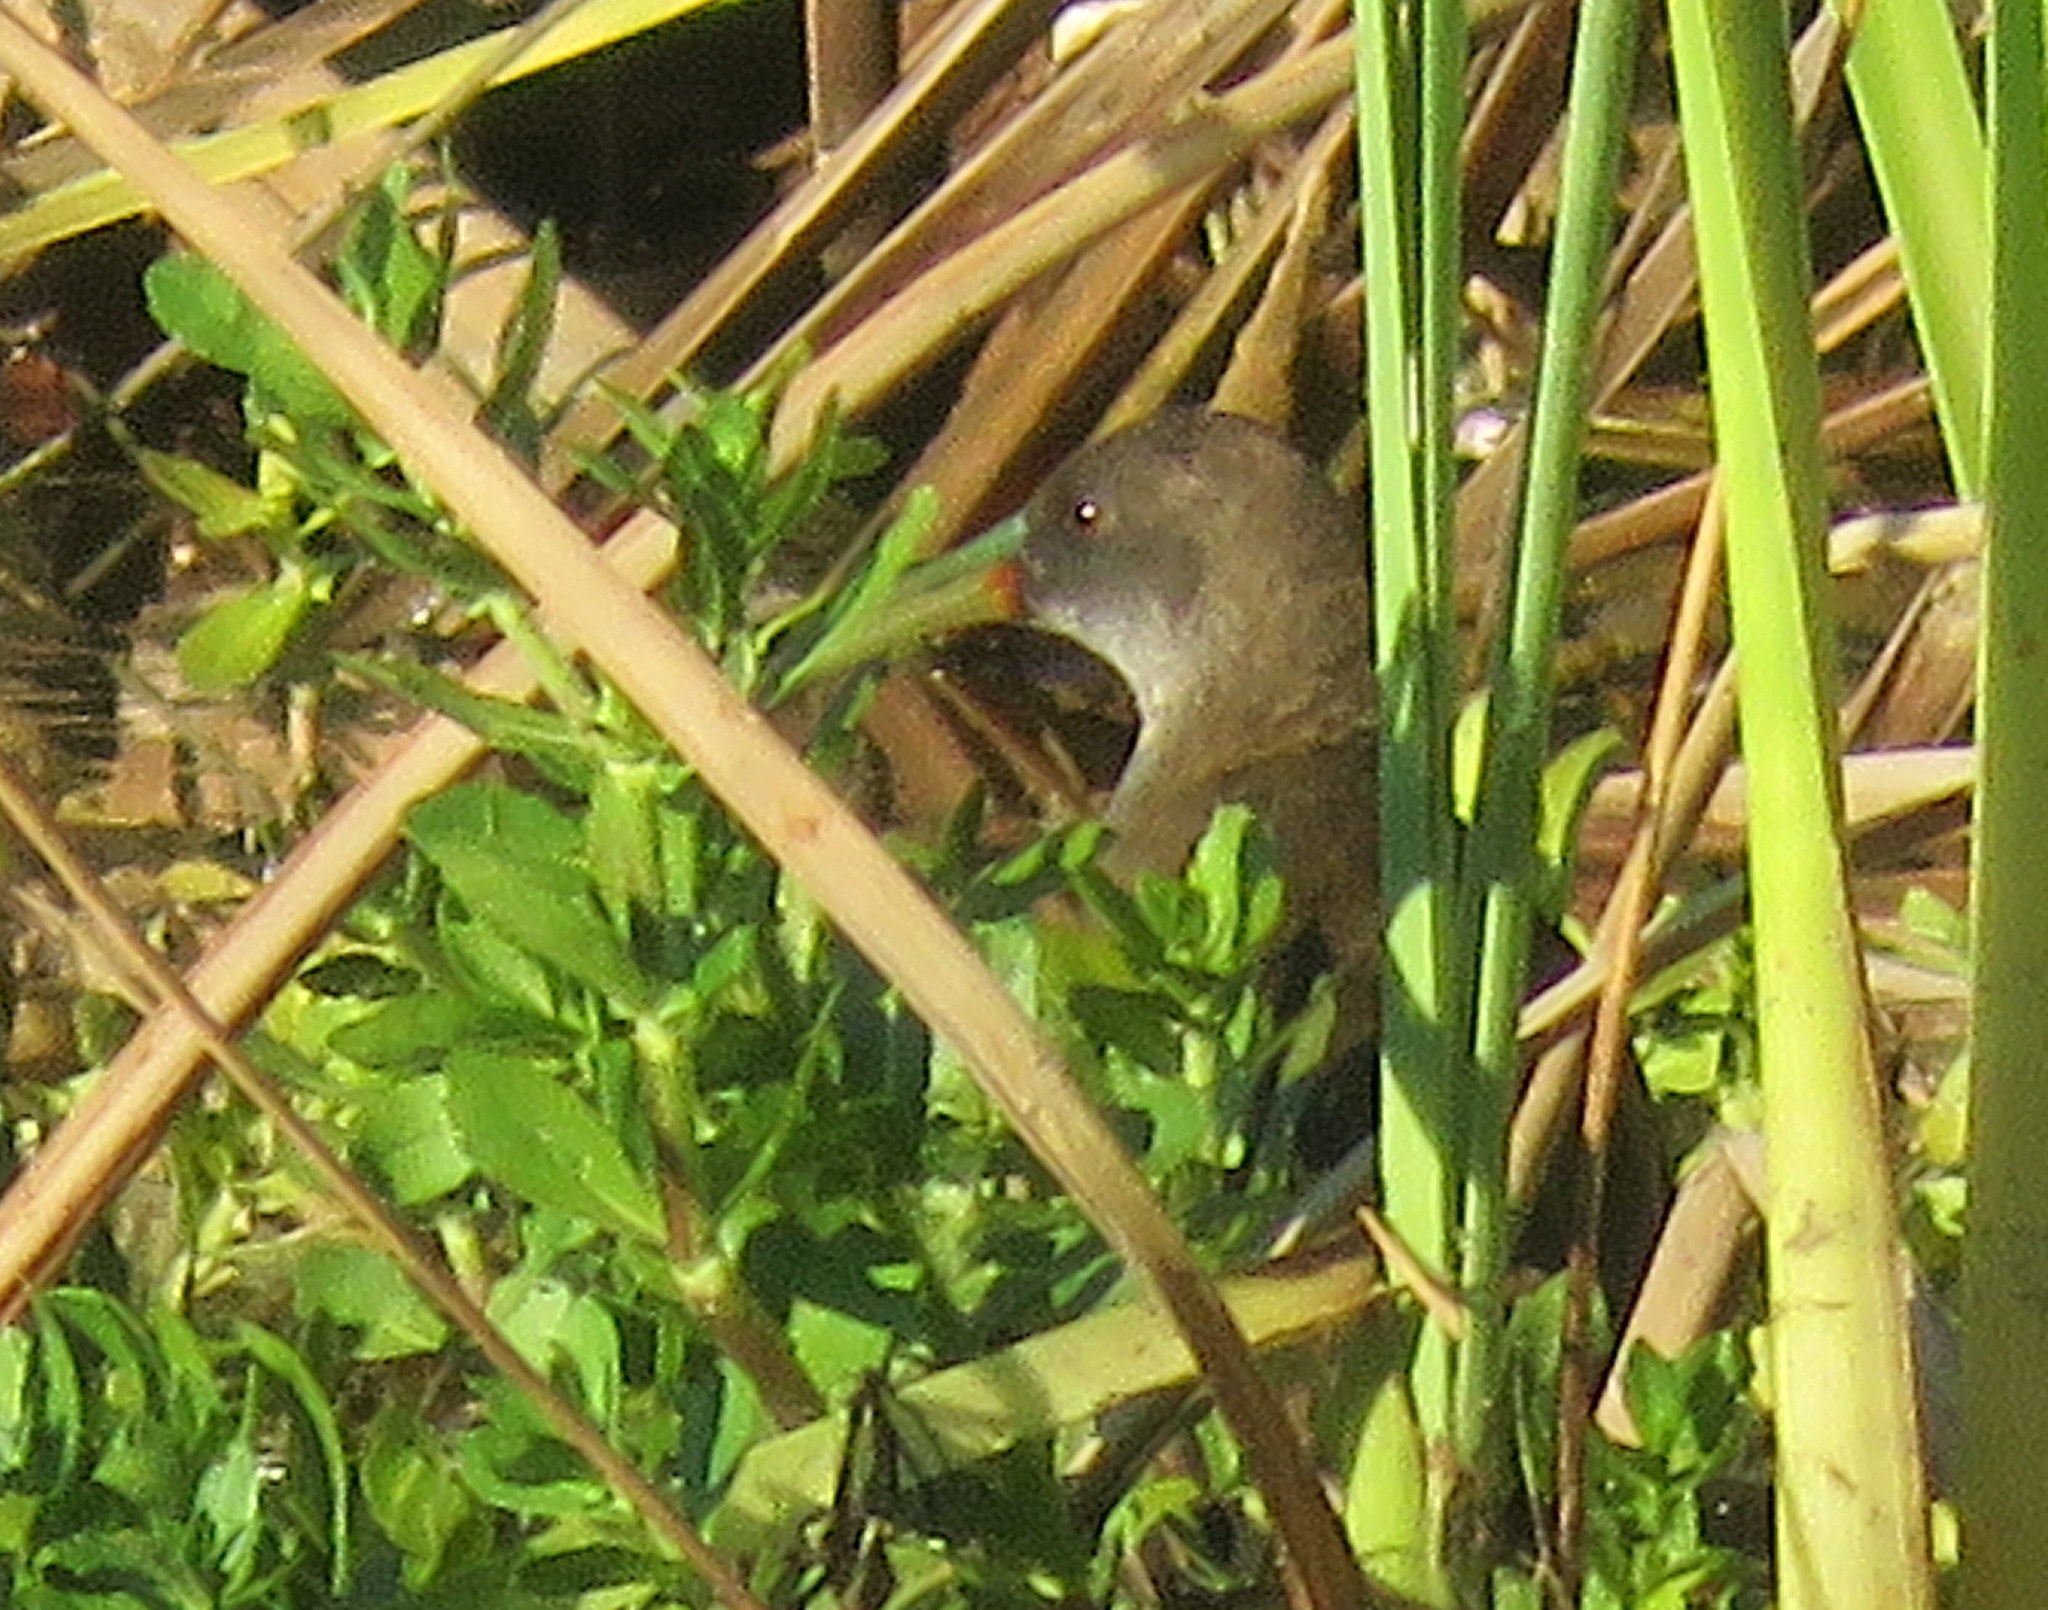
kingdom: Animalia
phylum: Chordata
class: Aves
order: Gruiformes
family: Rallidae
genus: Pardirallus
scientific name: Pardirallus sanguinolentus
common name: Plumbeous rail
